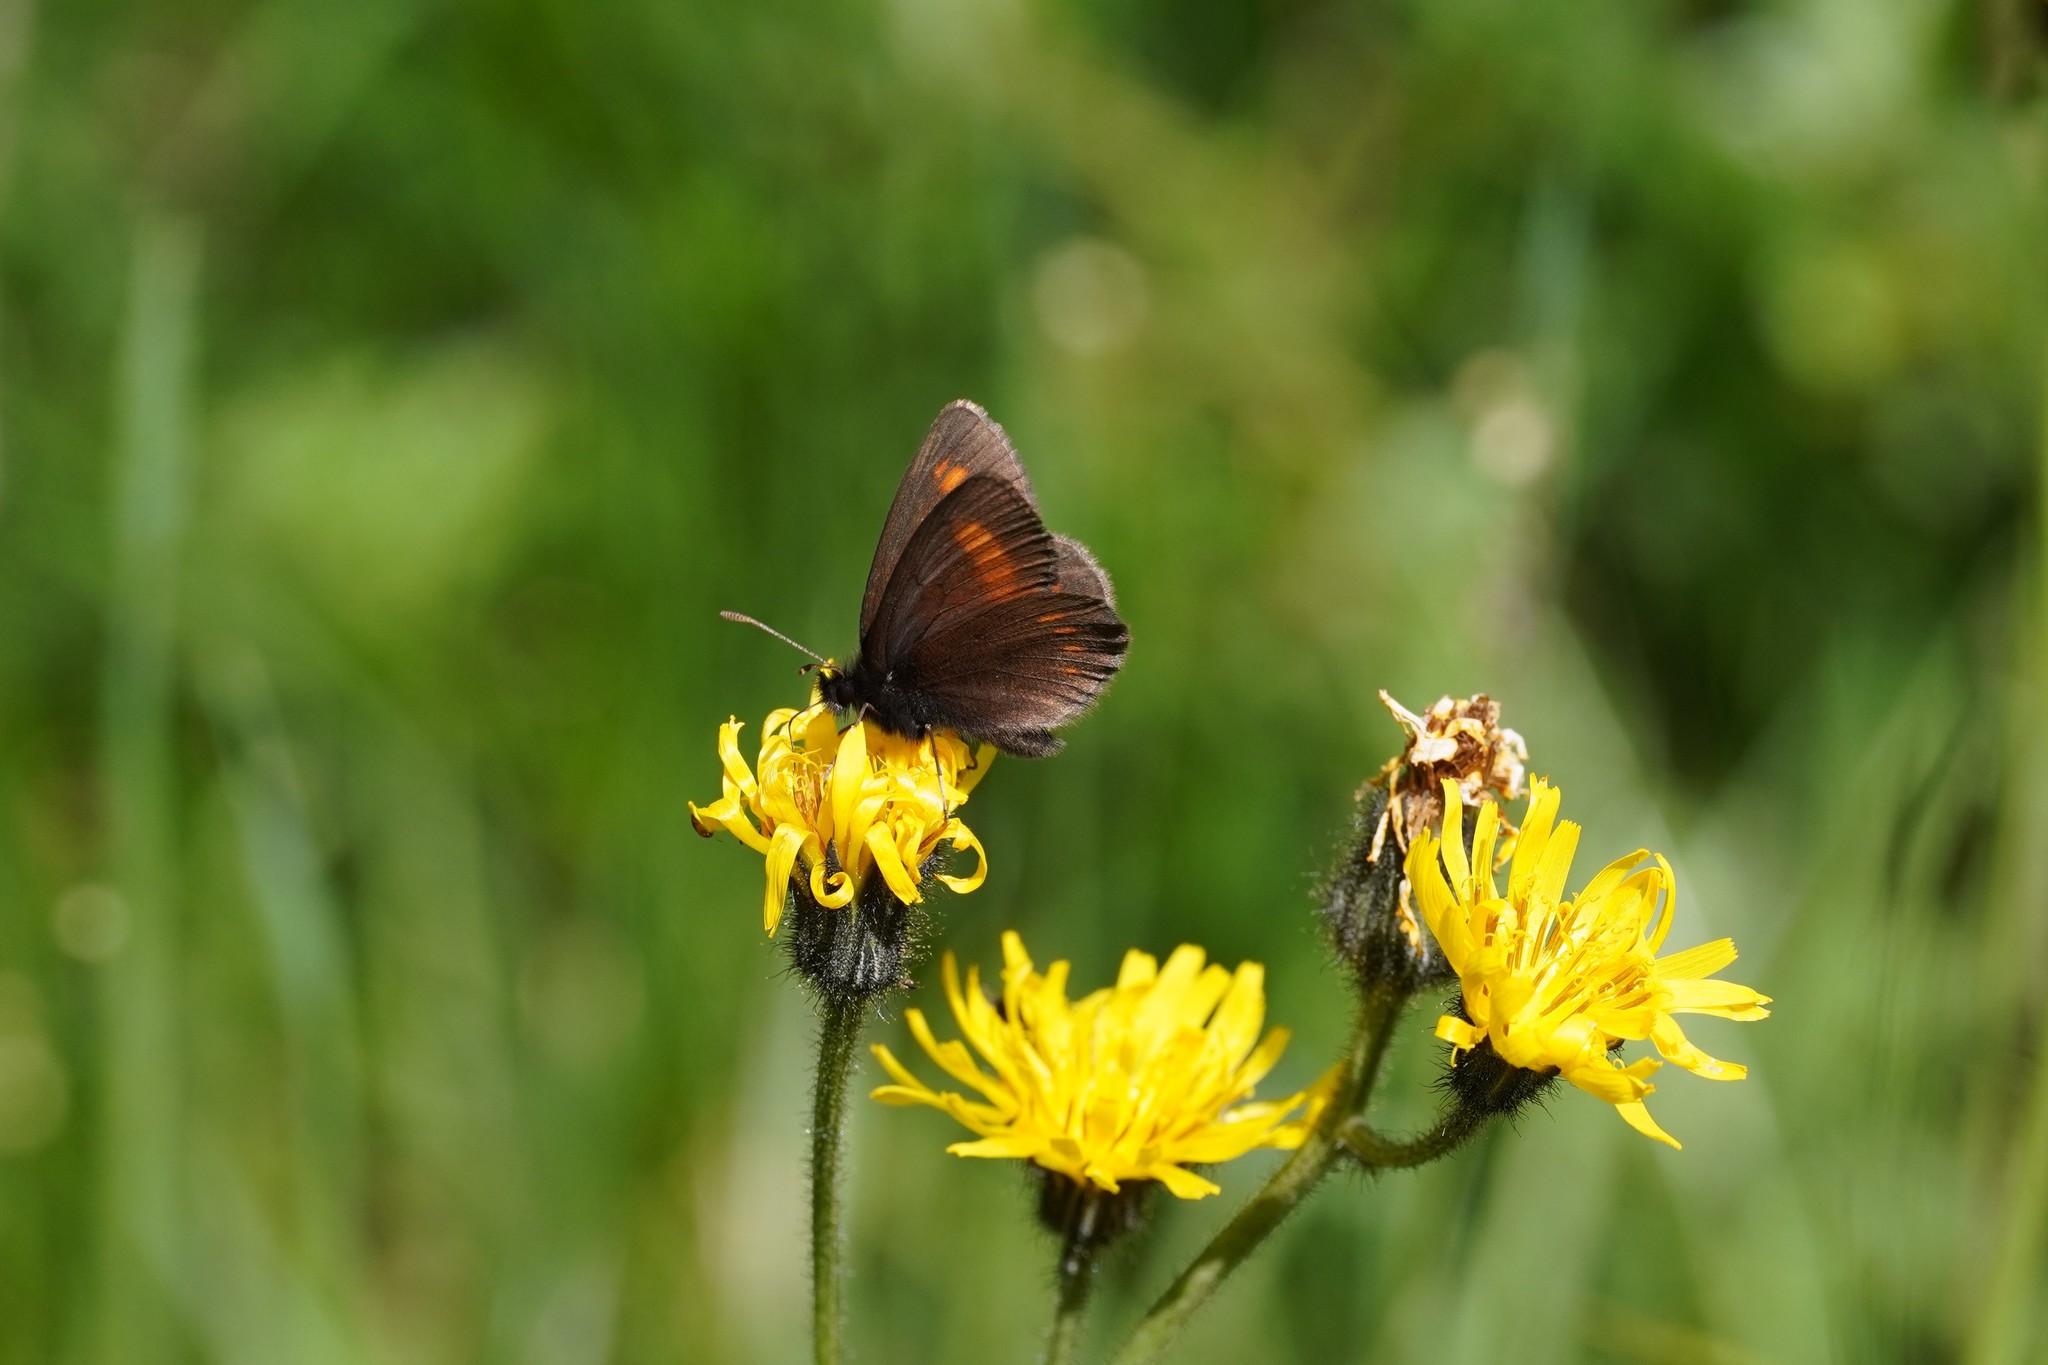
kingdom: Animalia
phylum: Arthropoda
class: Insecta
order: Lepidoptera
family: Nymphalidae
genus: Erebia
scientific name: Erebia pharte
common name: Blind ringlet
